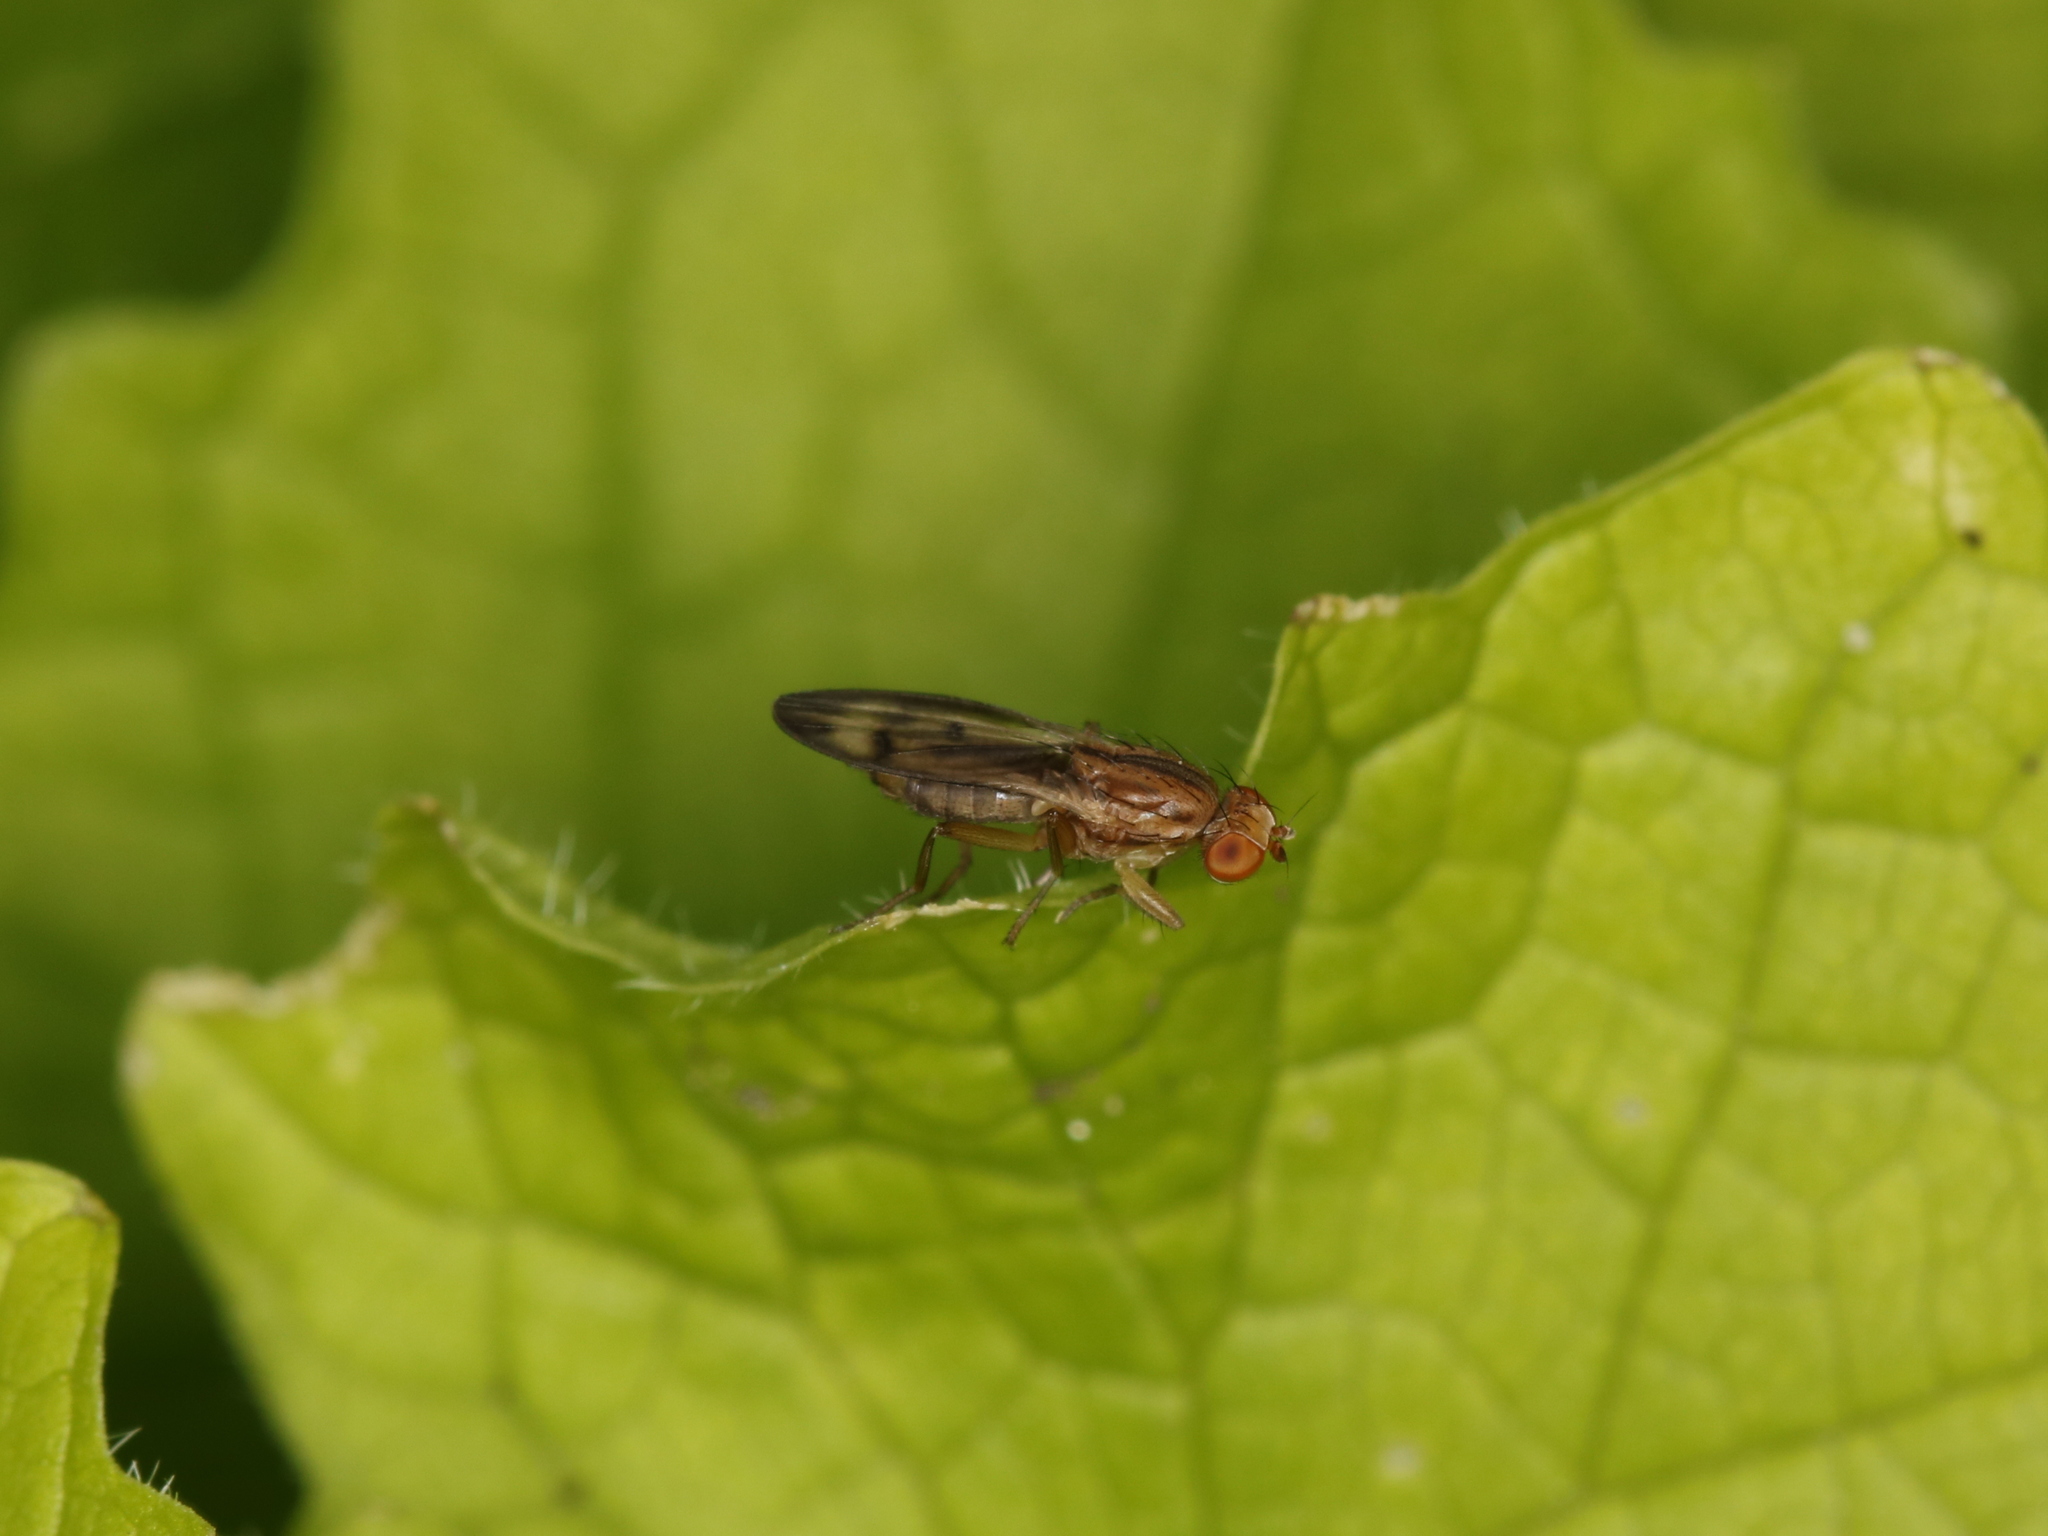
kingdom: Animalia
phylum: Arthropoda
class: Insecta
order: Diptera
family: Opomyzidae
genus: Opomyza
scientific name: Opomyza florum
